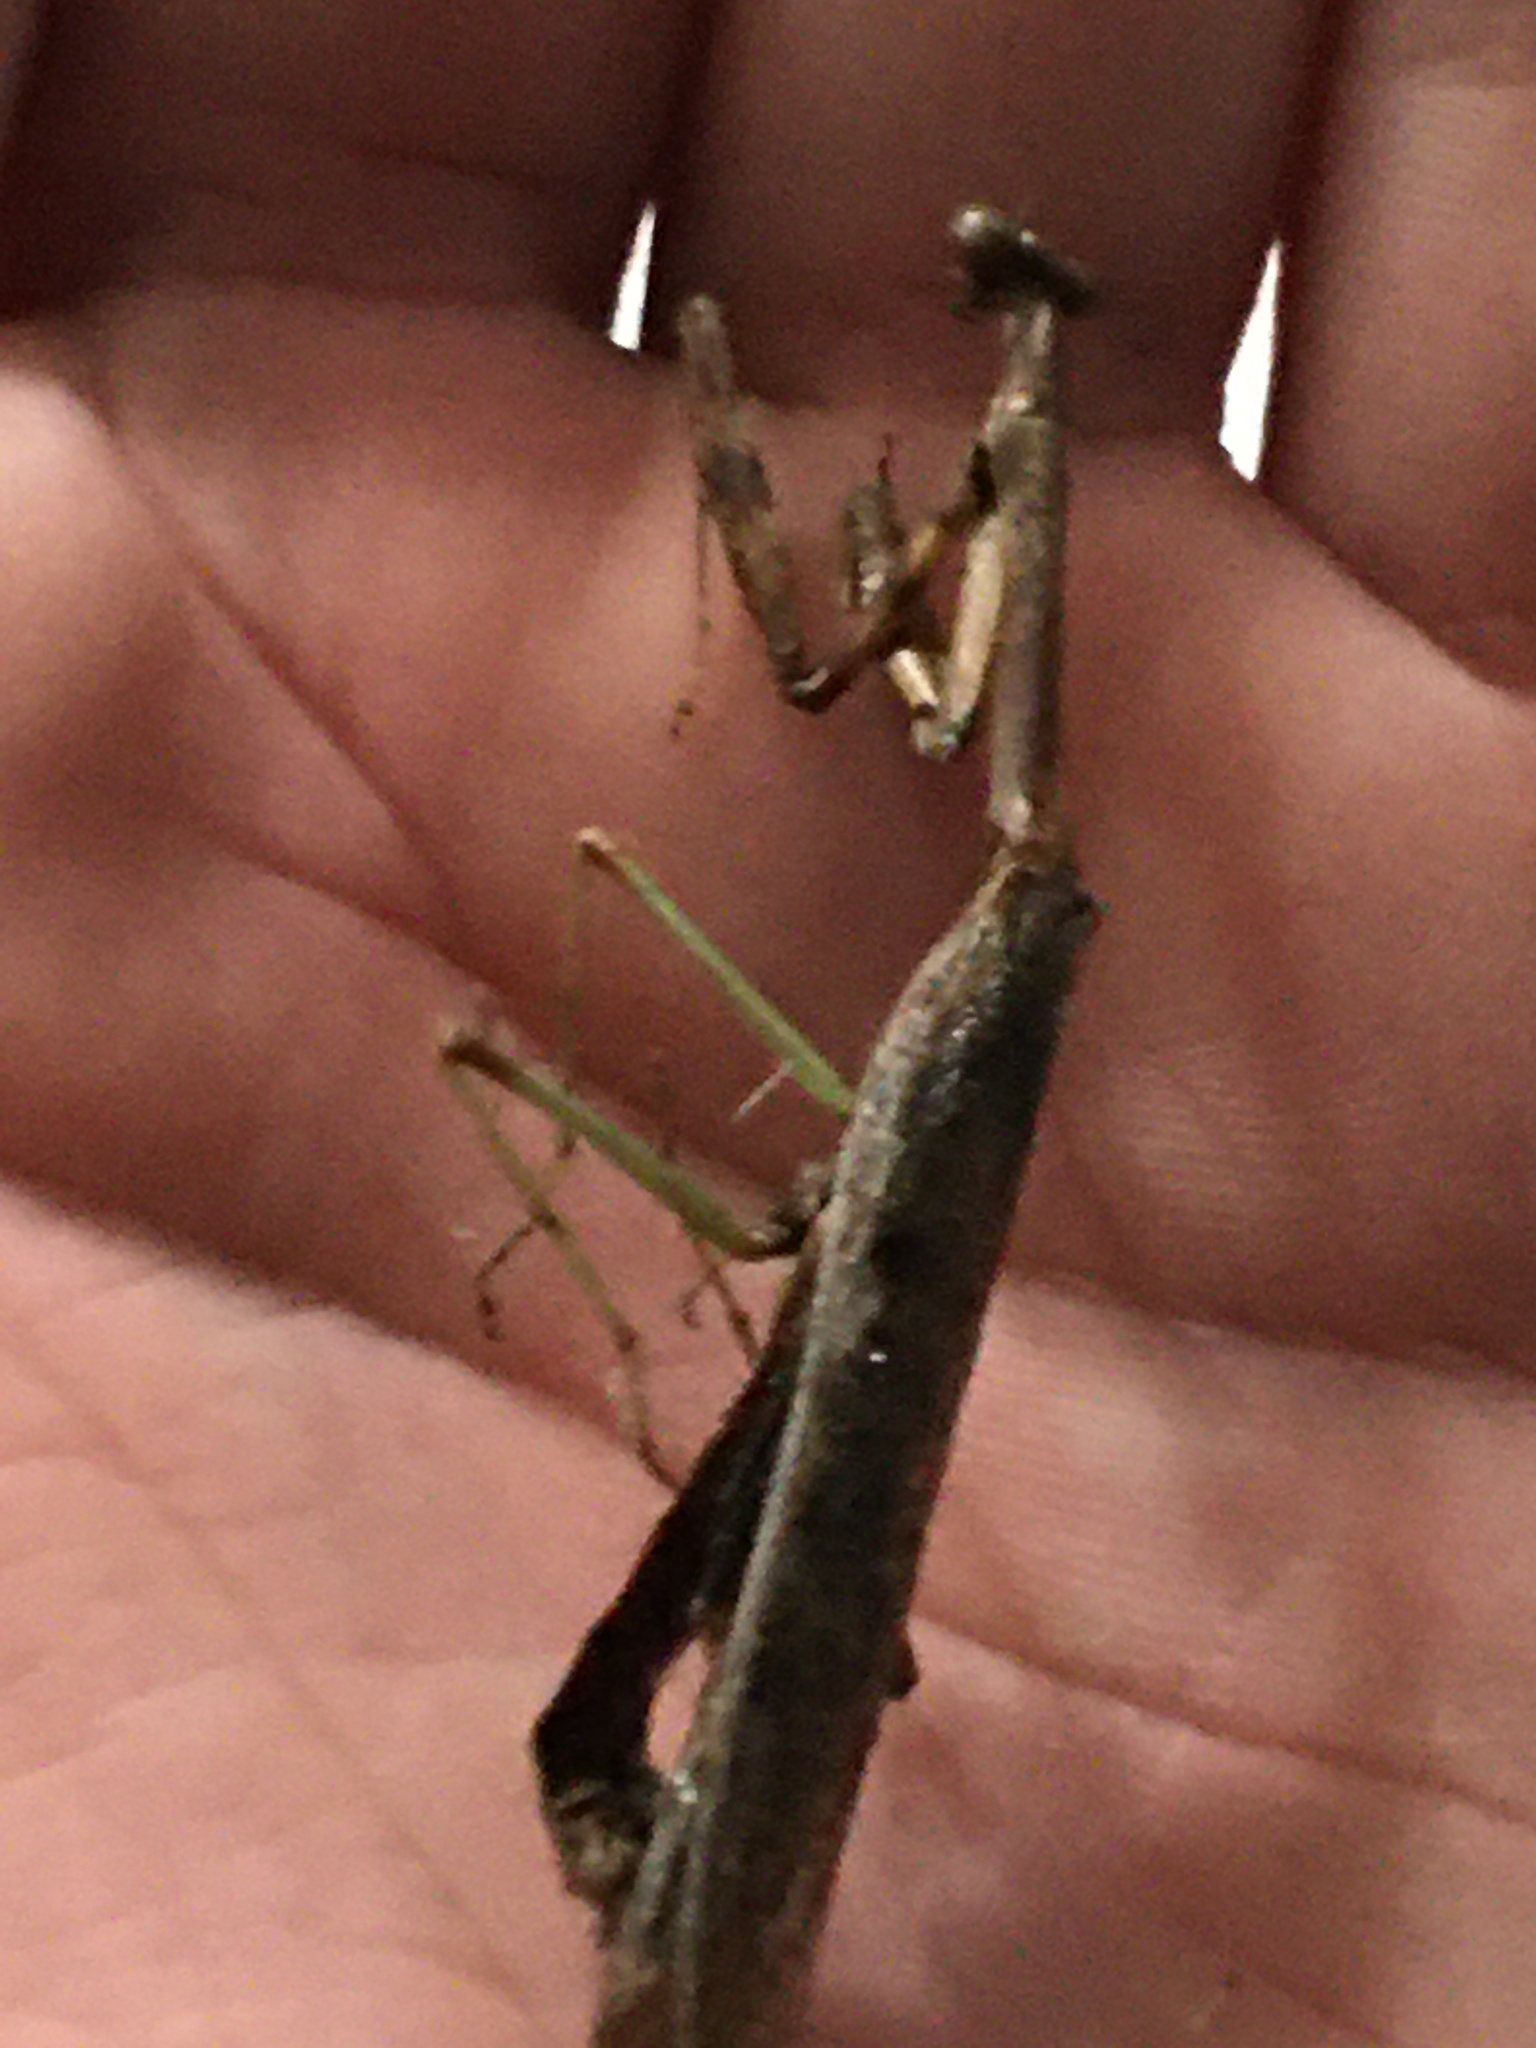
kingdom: Animalia
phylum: Arthropoda
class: Insecta
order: Mantodea
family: Mantidae
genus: Stagmomantis
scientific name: Stagmomantis carolina
